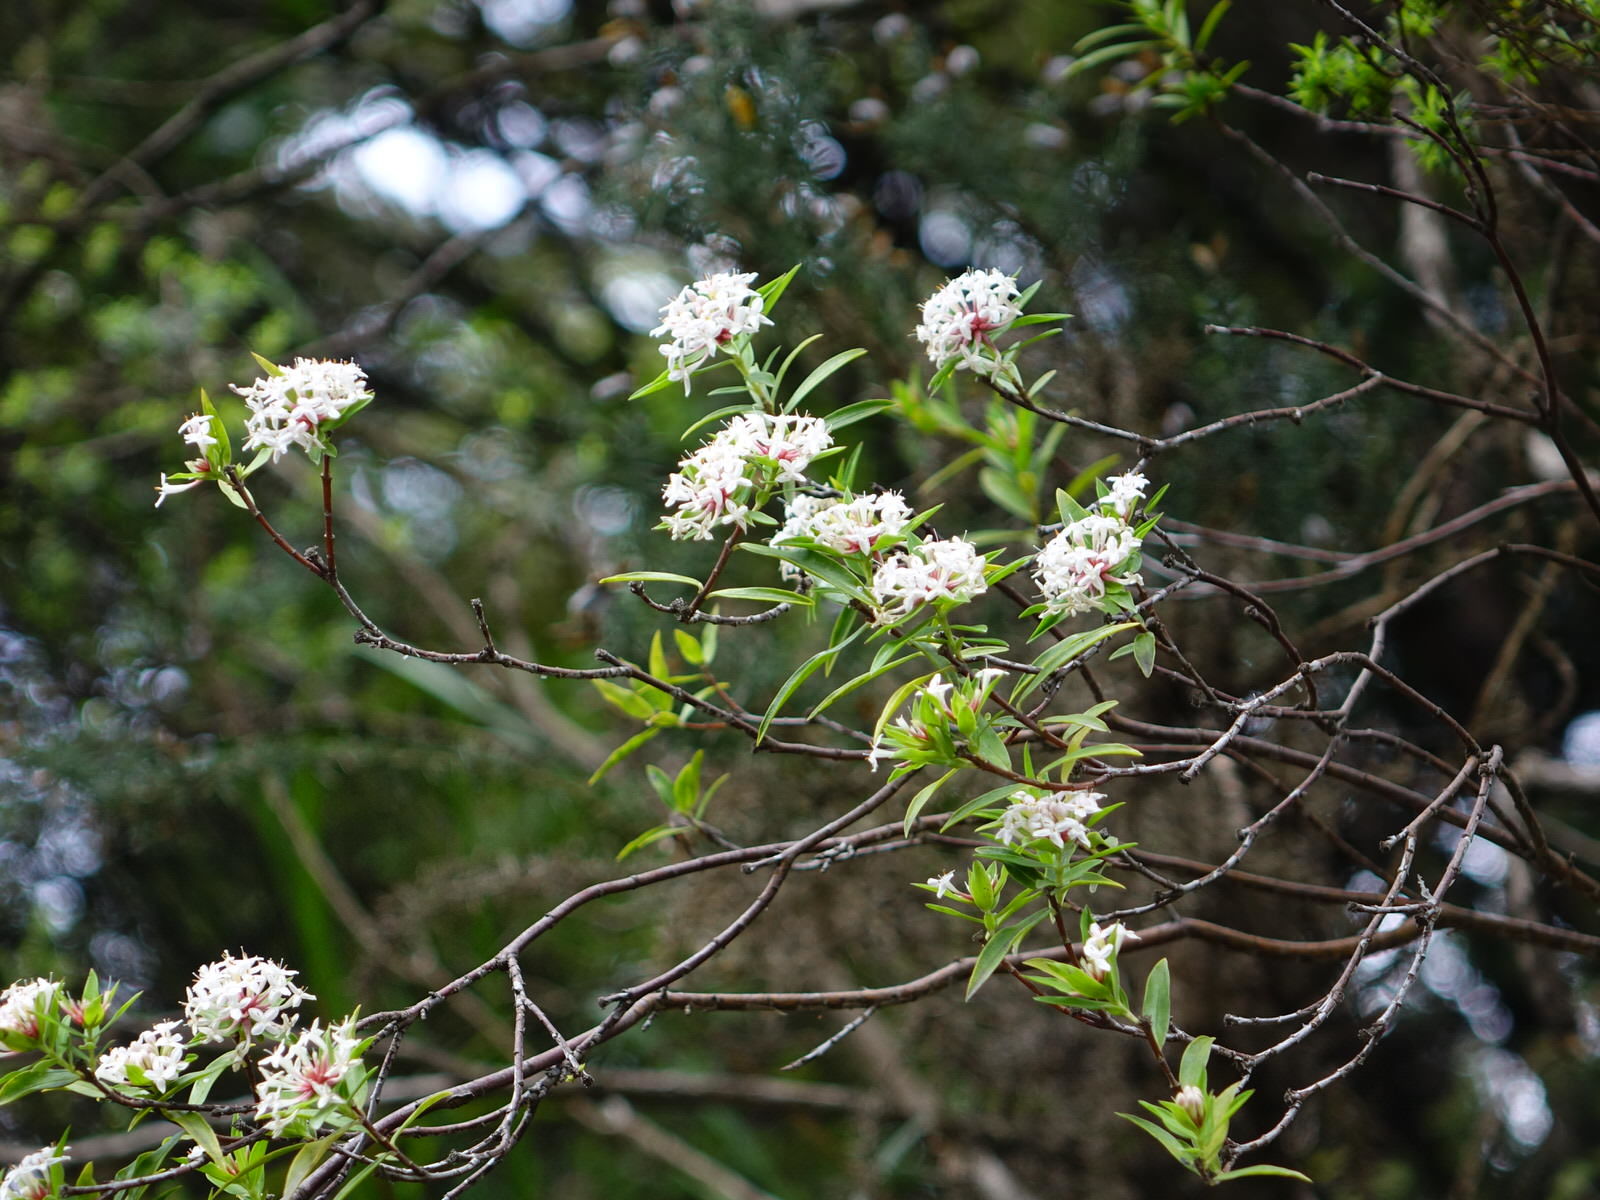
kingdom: Plantae
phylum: Tracheophyta
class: Magnoliopsida
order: Malvales
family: Thymelaeaceae
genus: Pimelea
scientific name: Pimelea longifolia
